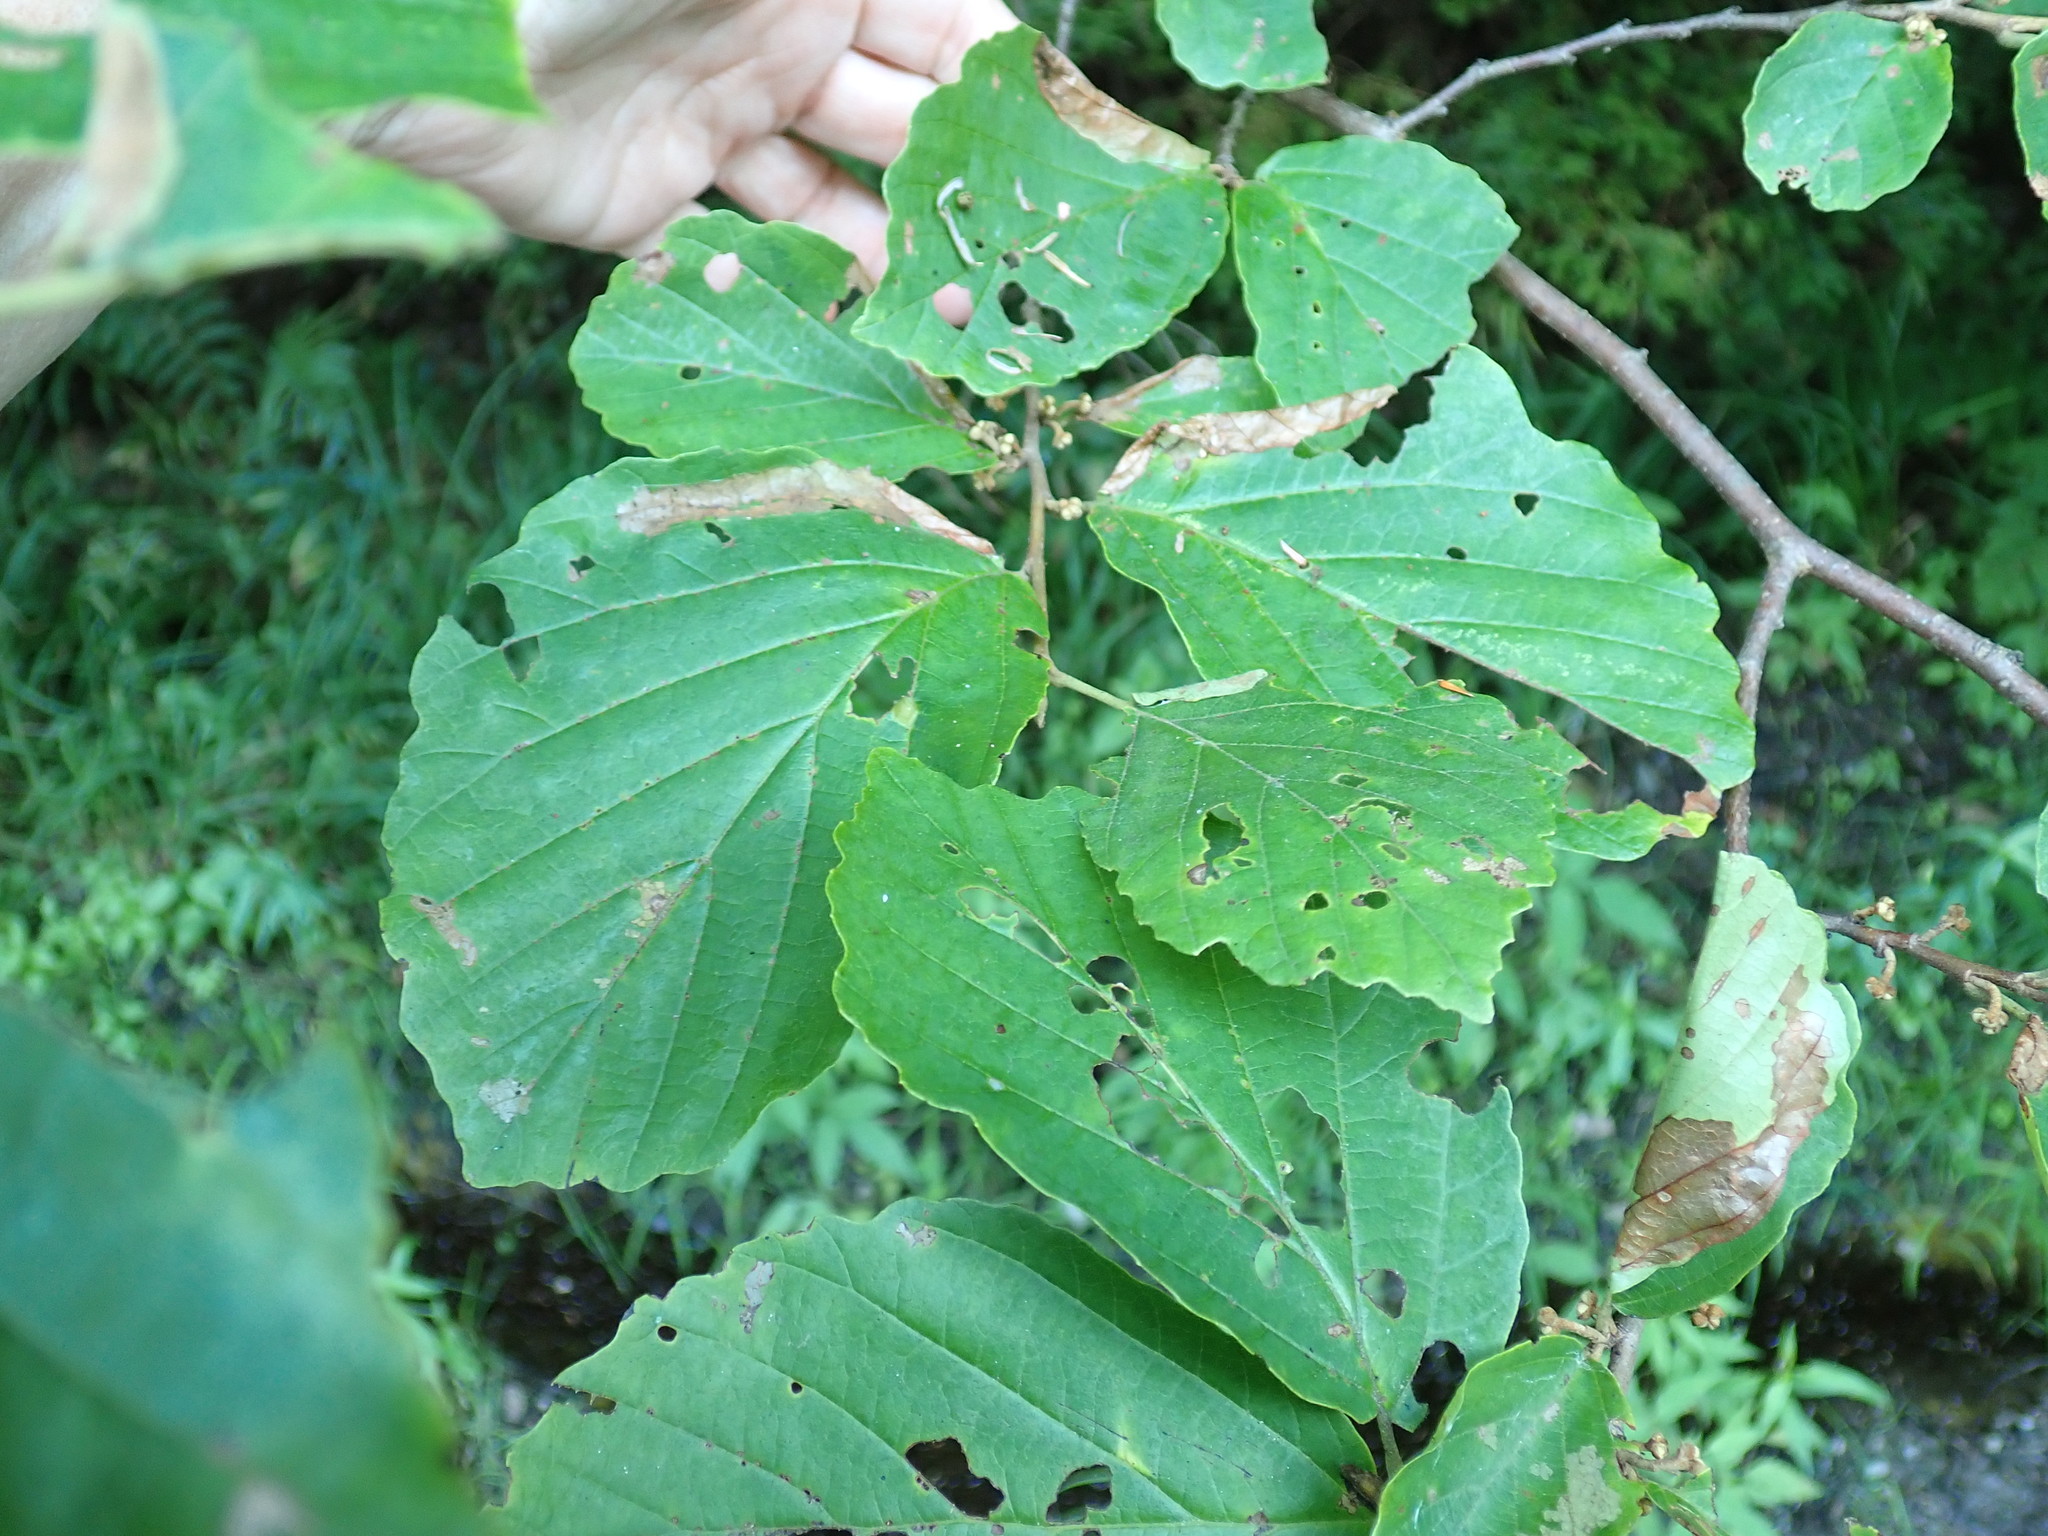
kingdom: Plantae
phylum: Tracheophyta
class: Magnoliopsida
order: Saxifragales
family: Hamamelidaceae
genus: Hamamelis
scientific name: Hamamelis virginiana
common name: Witch-hazel
